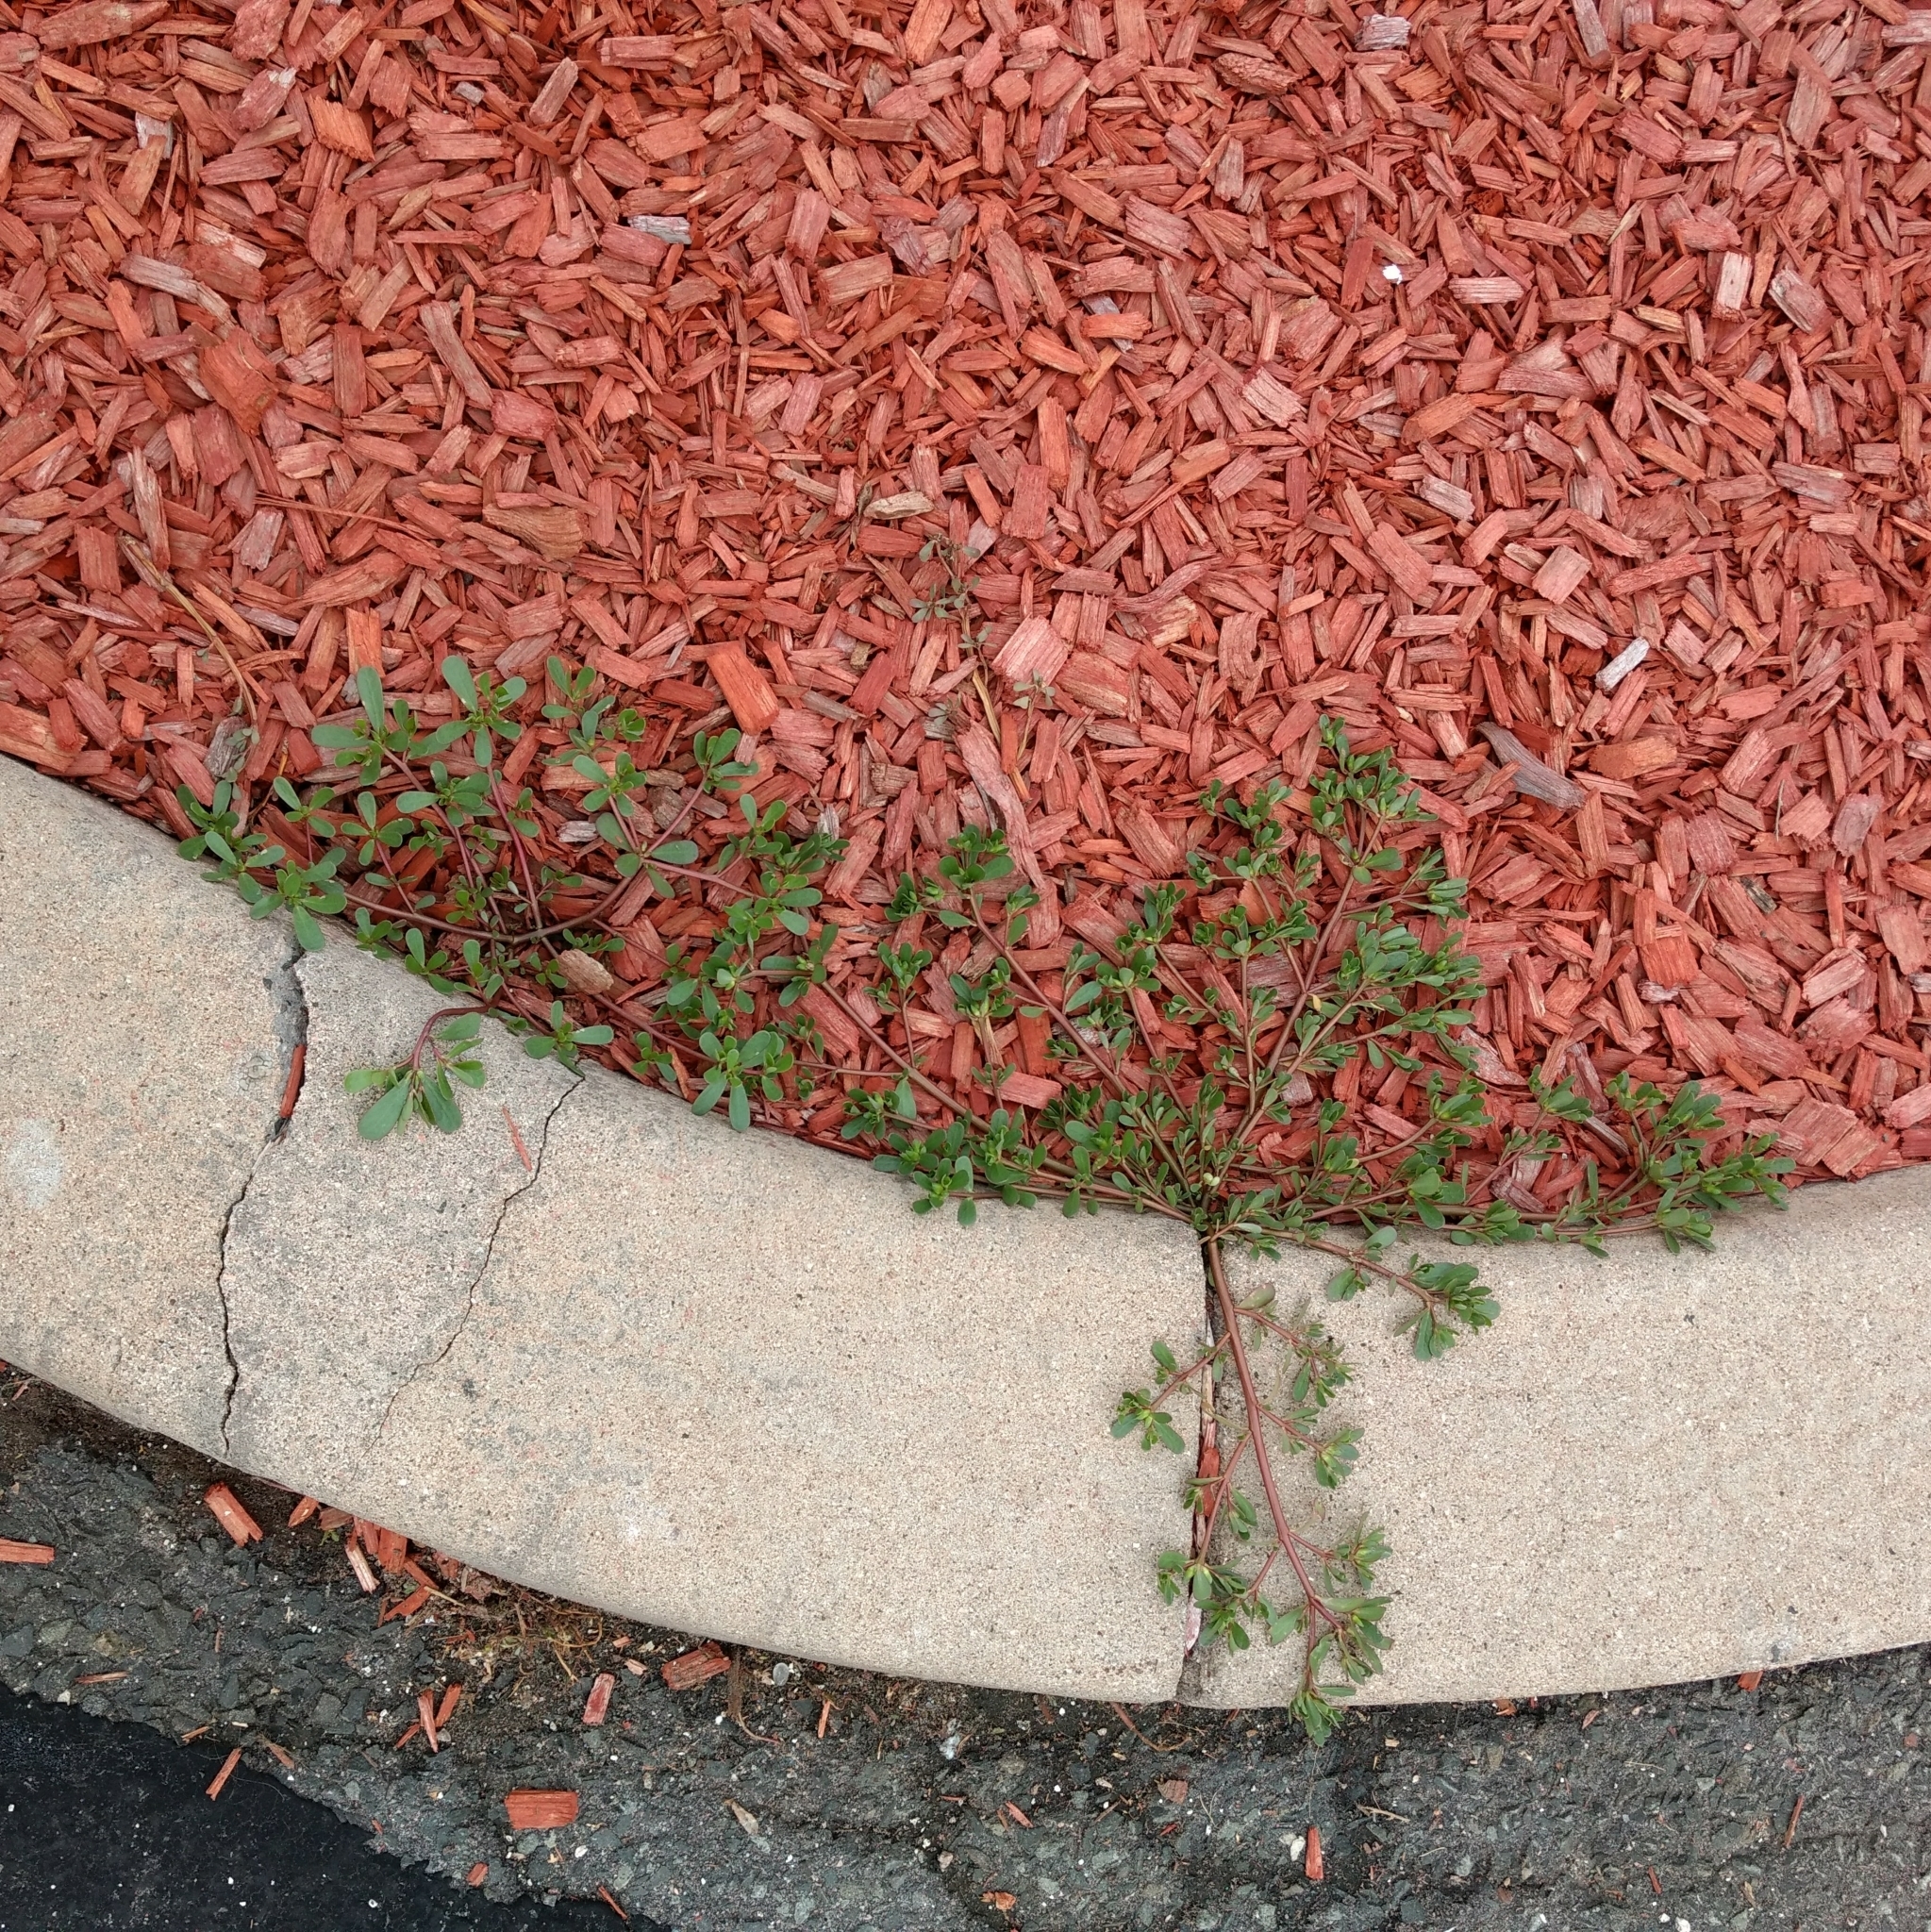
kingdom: Plantae
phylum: Tracheophyta
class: Magnoliopsida
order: Caryophyllales
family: Portulacaceae
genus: Portulaca
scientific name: Portulaca oleracea
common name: Common purslane
